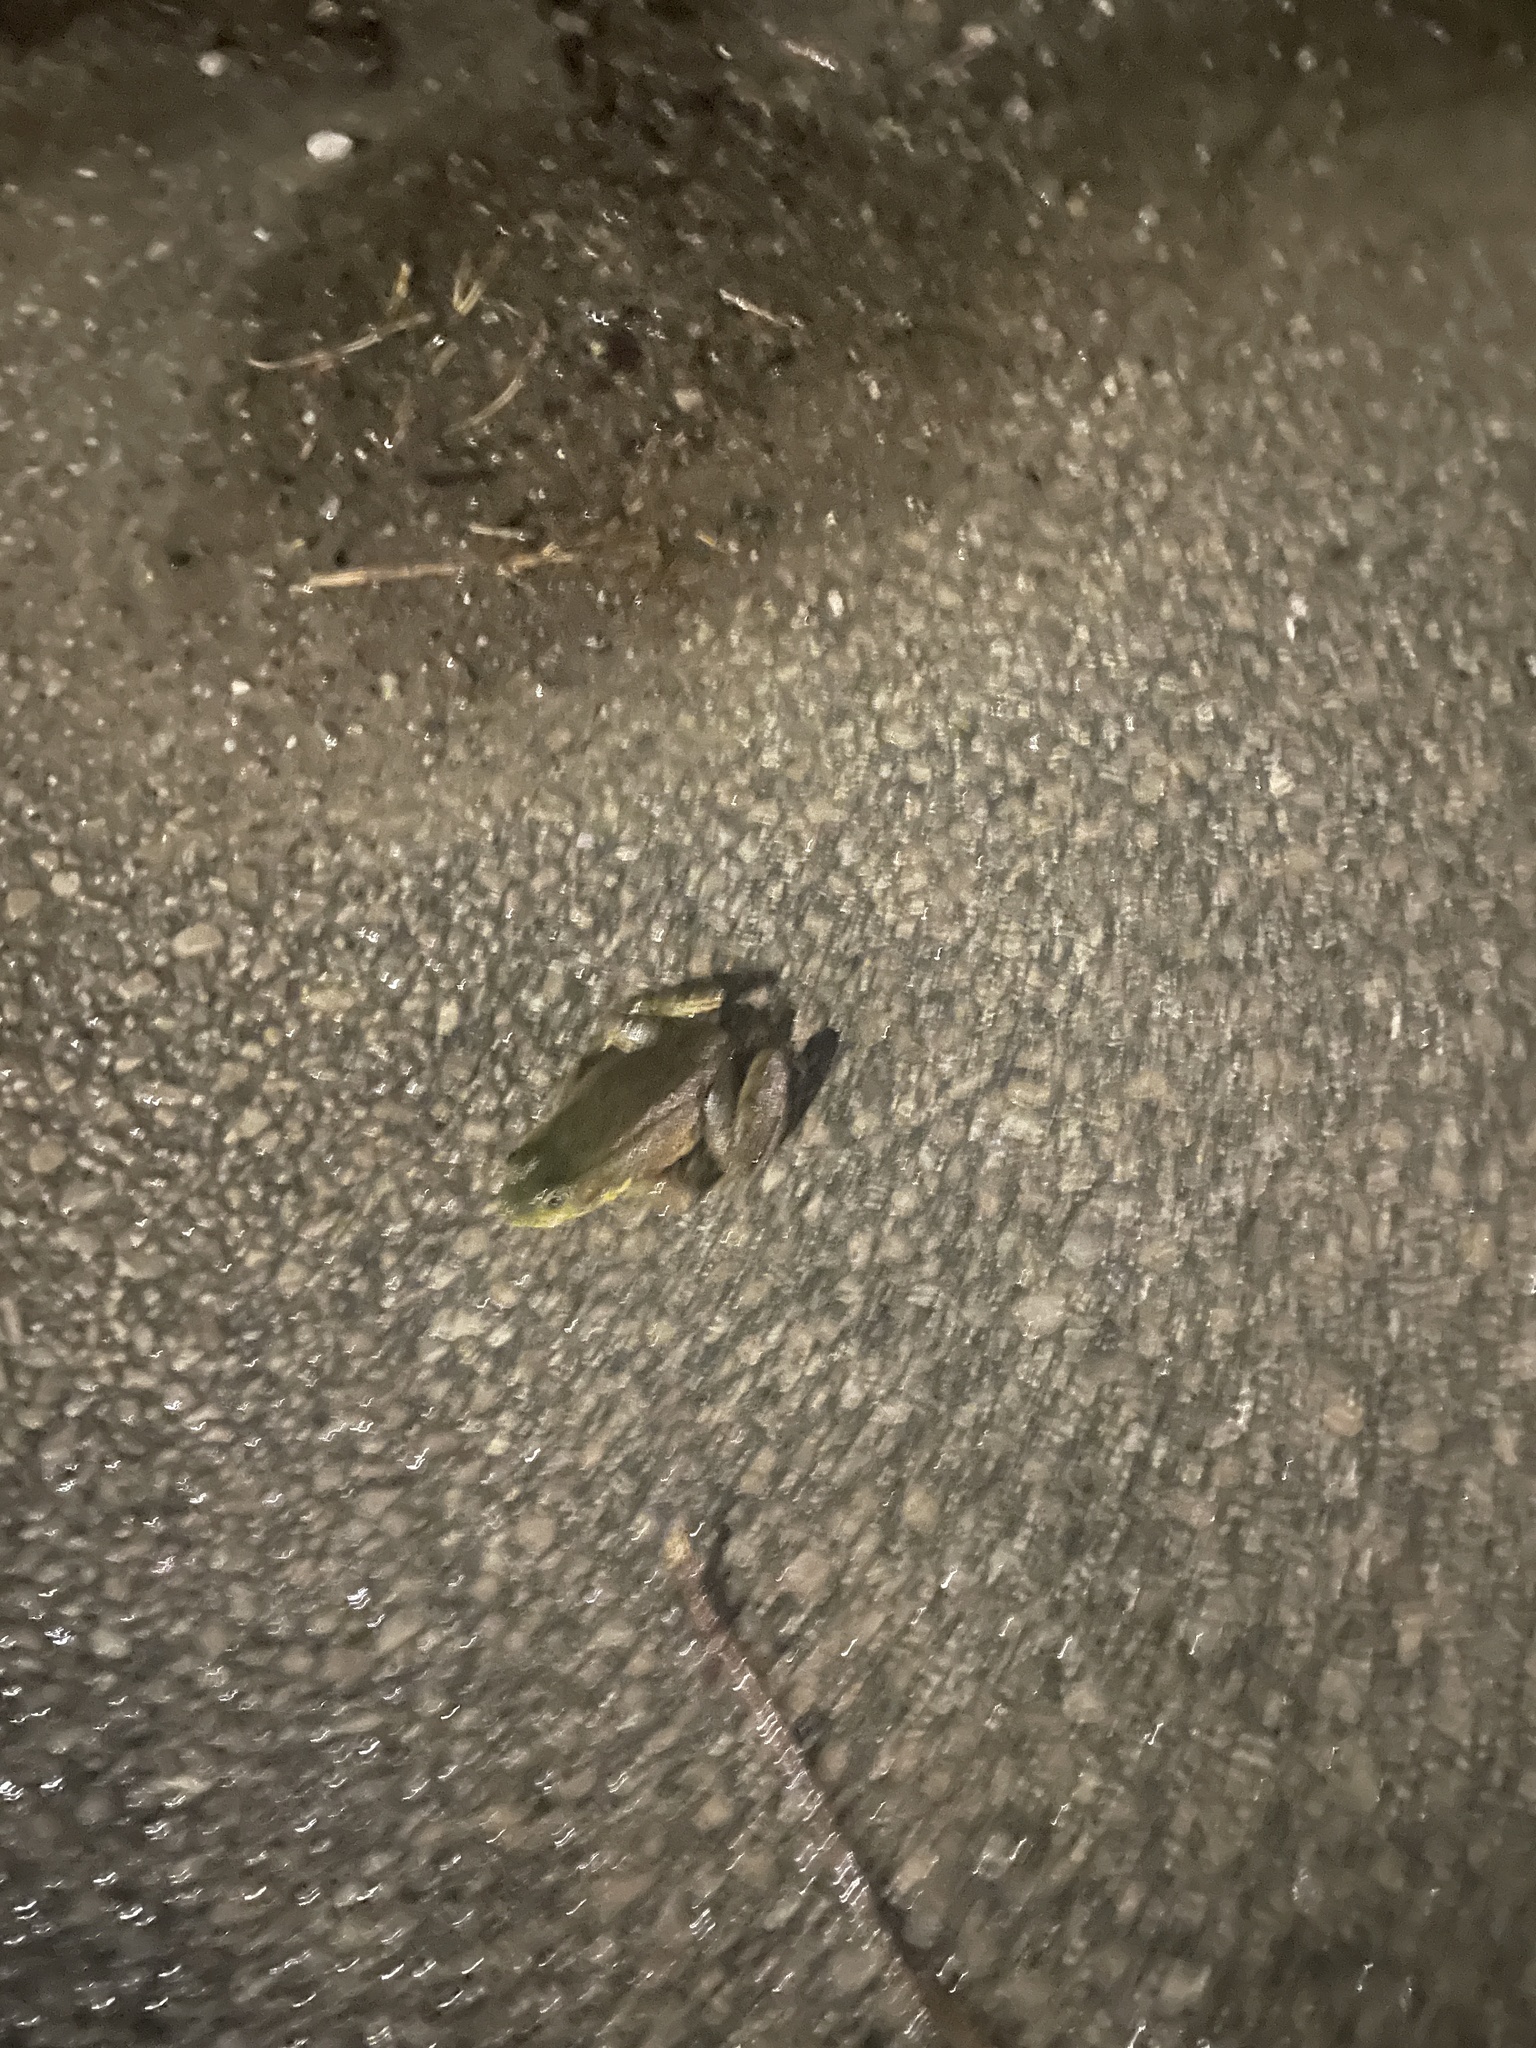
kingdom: Animalia
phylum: Chordata
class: Amphibia
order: Anura
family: Ranidae
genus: Lithobates
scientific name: Lithobates clamitans
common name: Green frog
